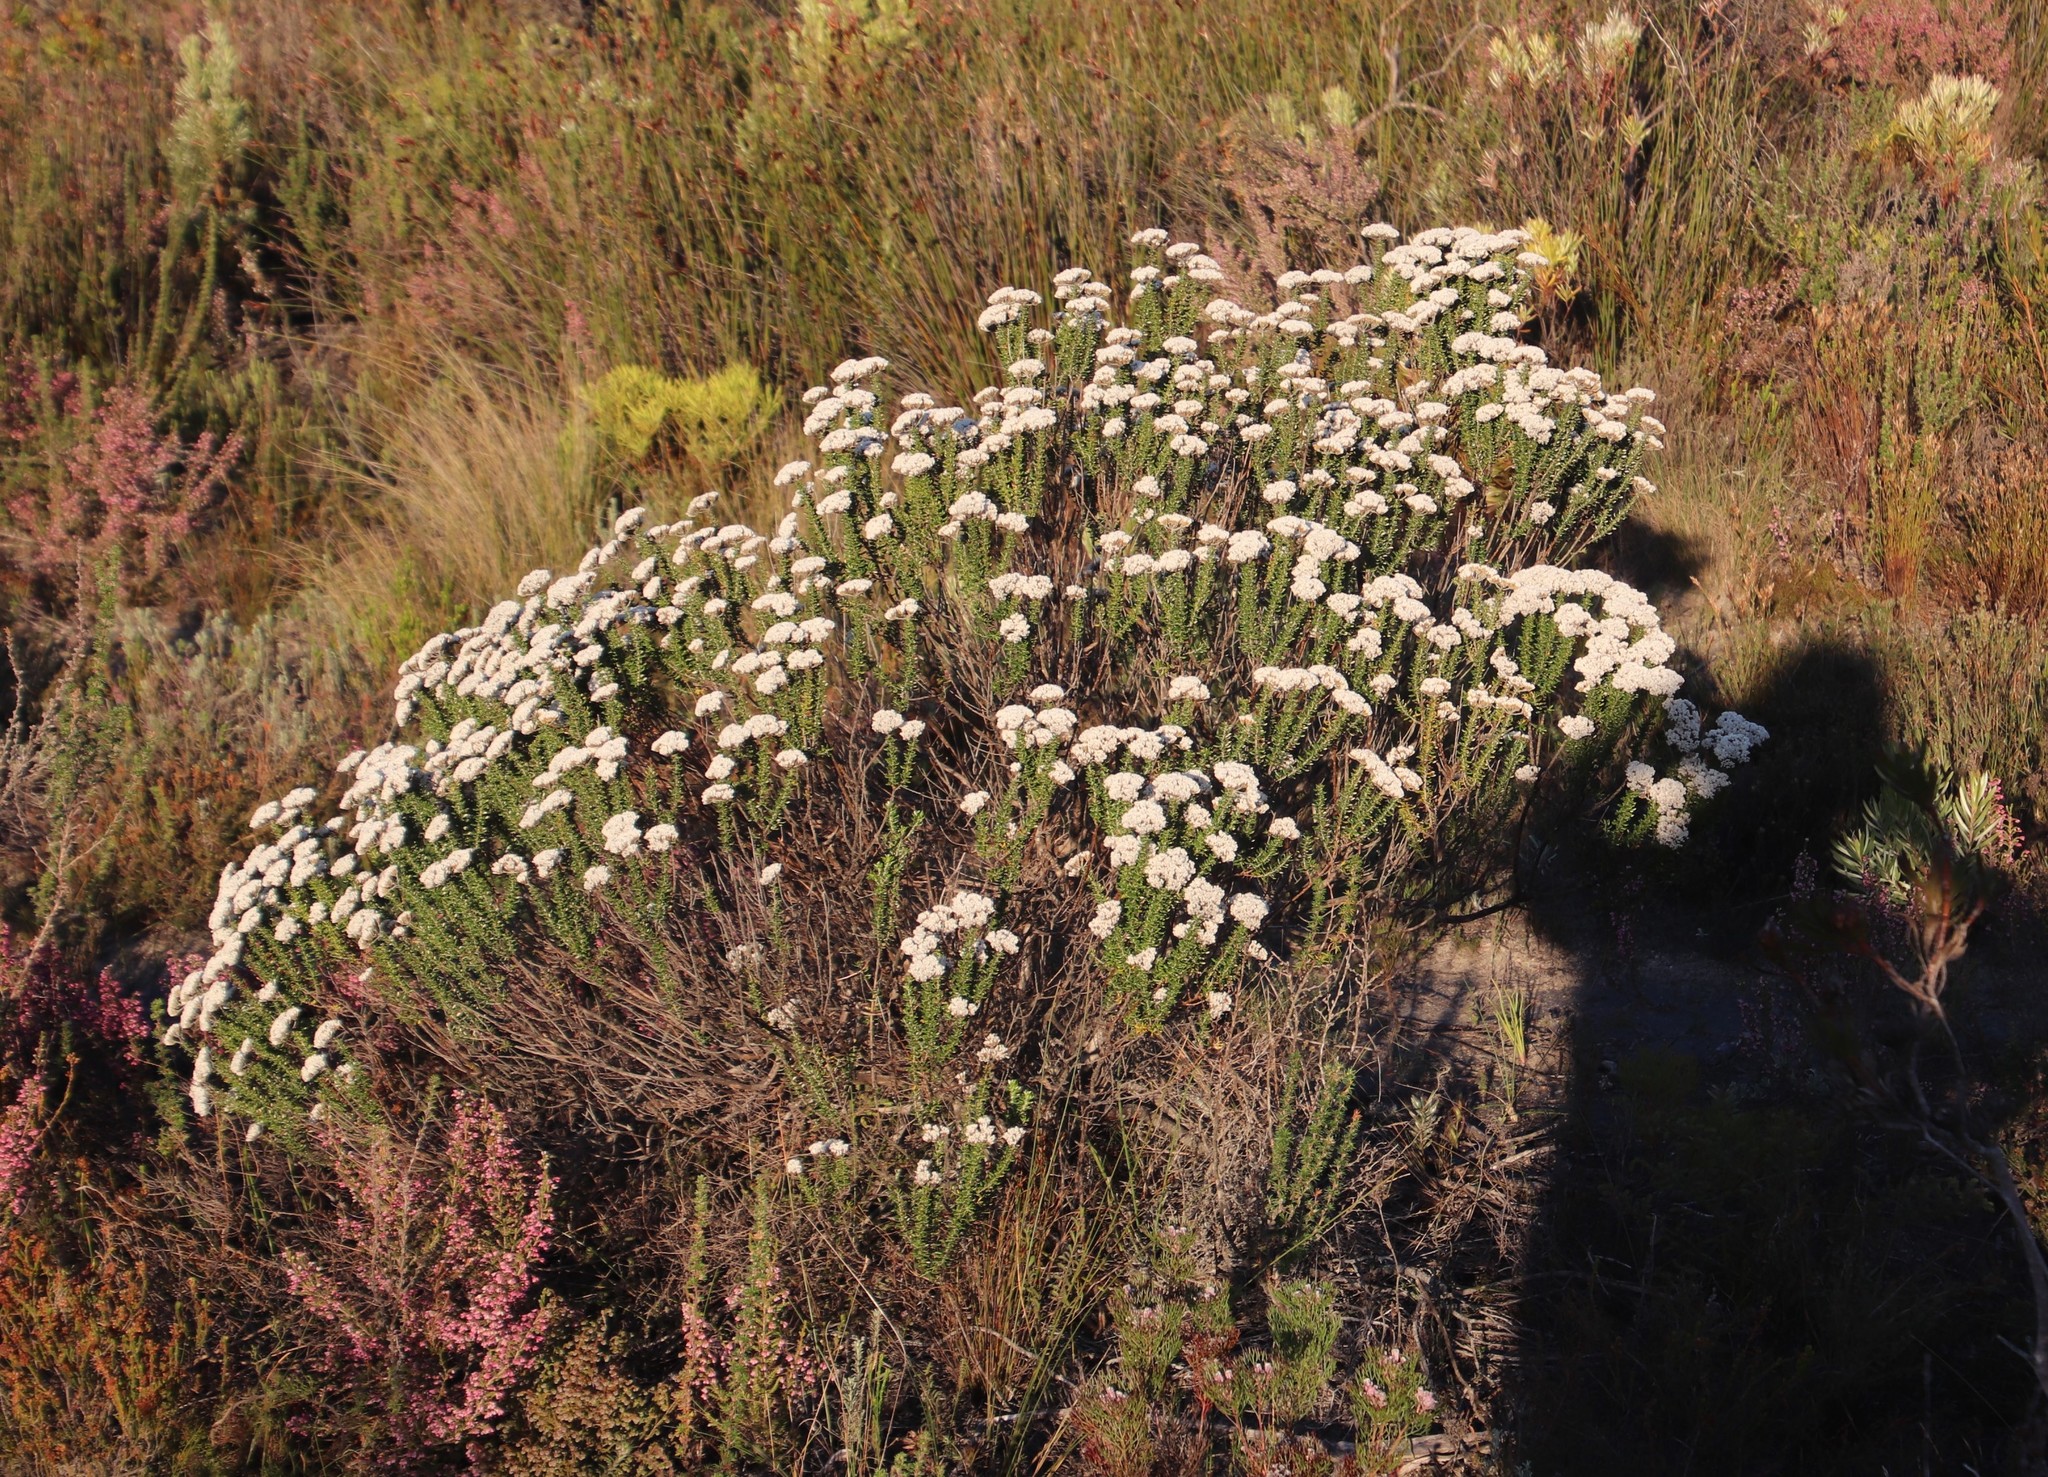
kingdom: Plantae
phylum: Tracheophyta
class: Magnoliopsida
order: Asterales
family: Asteraceae
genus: Metalasia
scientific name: Metalasia densa
